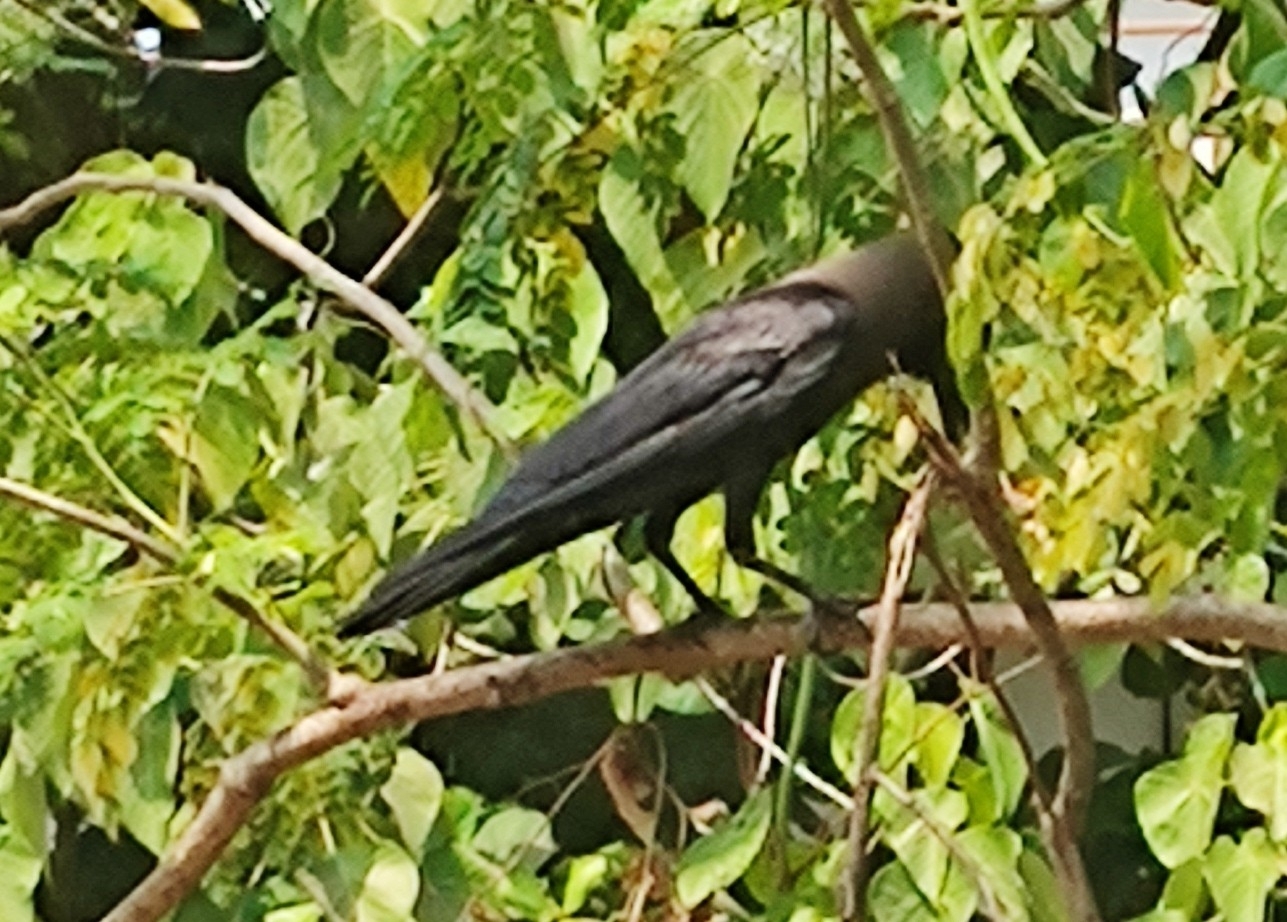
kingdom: Animalia
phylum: Chordata
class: Aves
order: Passeriformes
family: Corvidae
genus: Corvus
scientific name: Corvus splendens
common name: House crow
